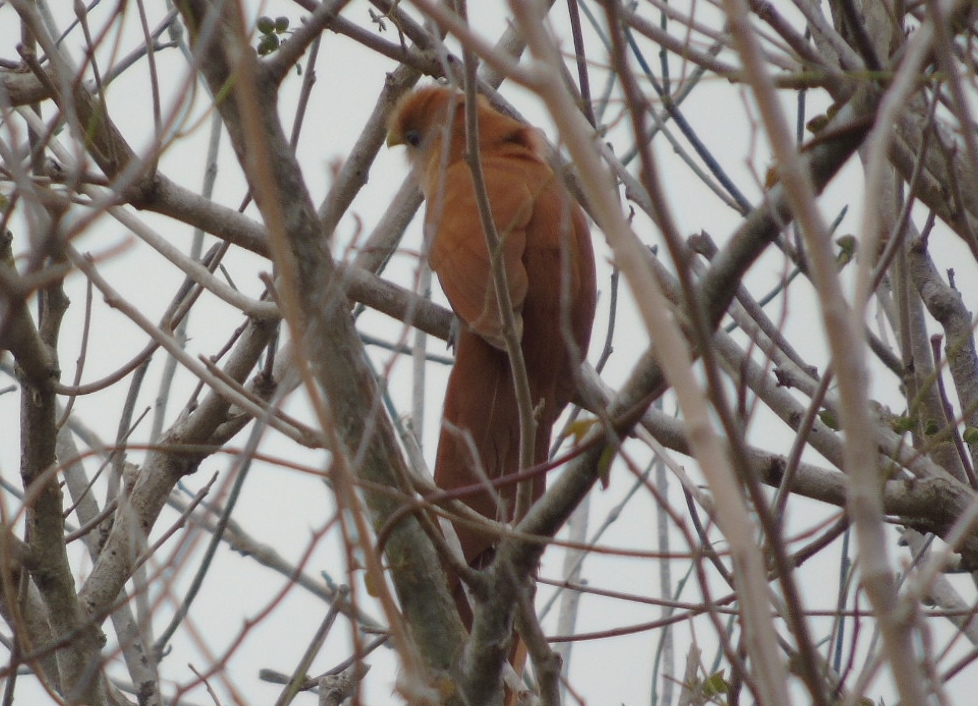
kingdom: Animalia
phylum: Chordata
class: Aves
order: Cuculiformes
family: Cuculidae
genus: Piaya
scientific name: Piaya cayana
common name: Squirrel cuckoo
